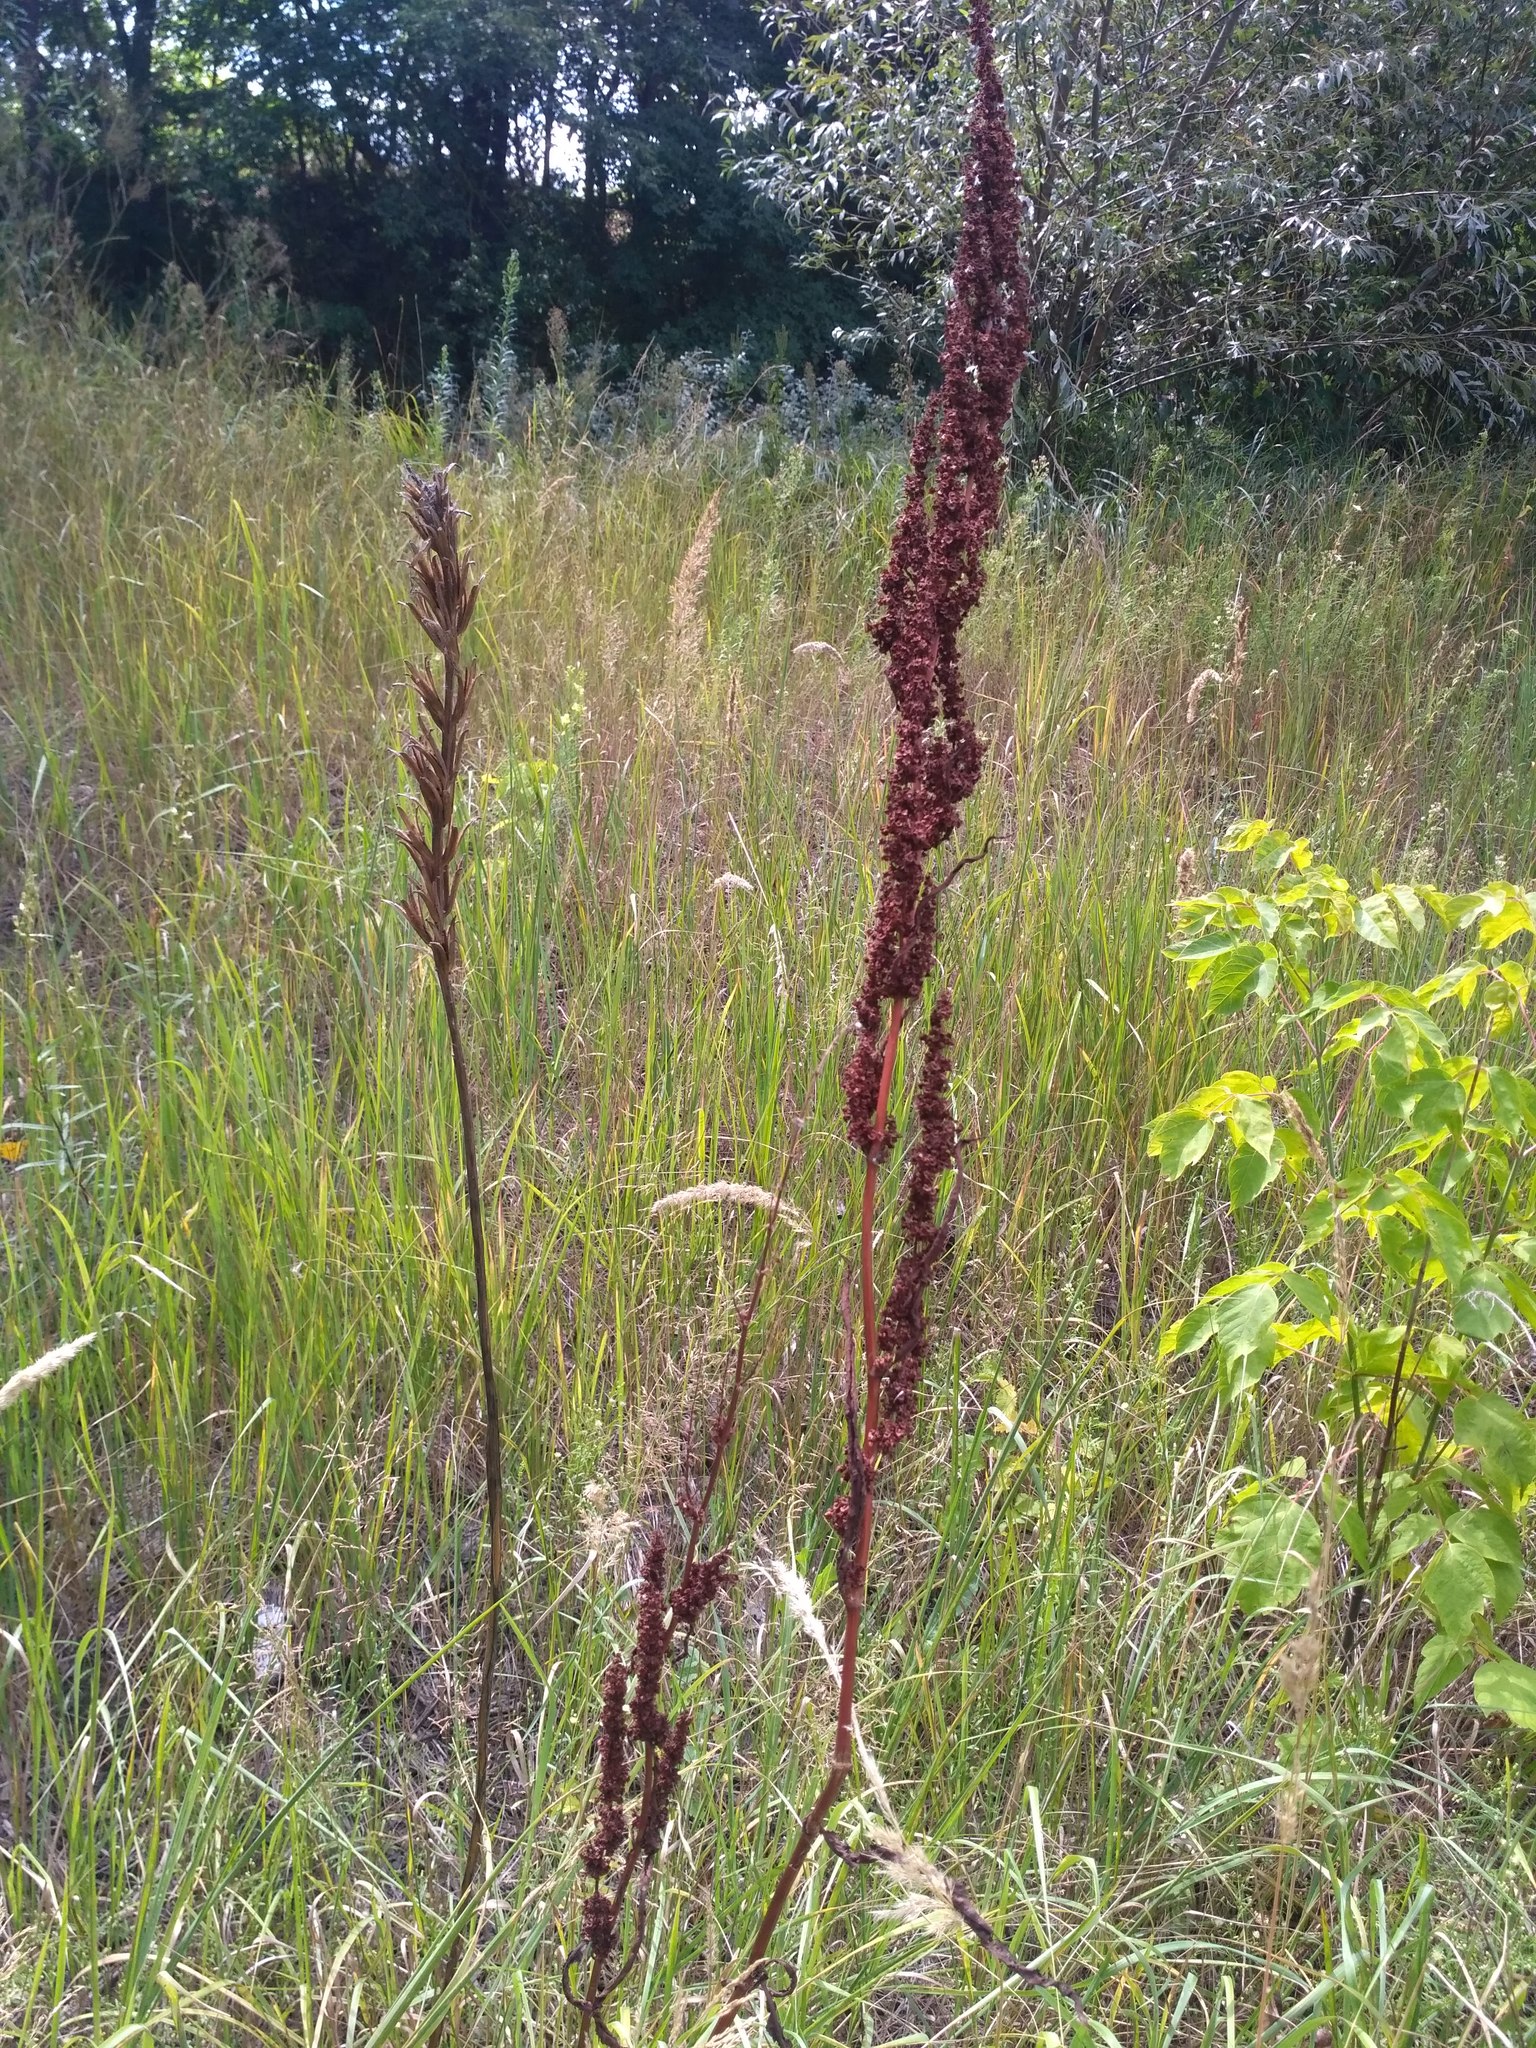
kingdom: Plantae
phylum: Tracheophyta
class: Magnoliopsida
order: Caryophyllales
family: Polygonaceae
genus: Rumex
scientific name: Rumex crispus
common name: Curled dock
